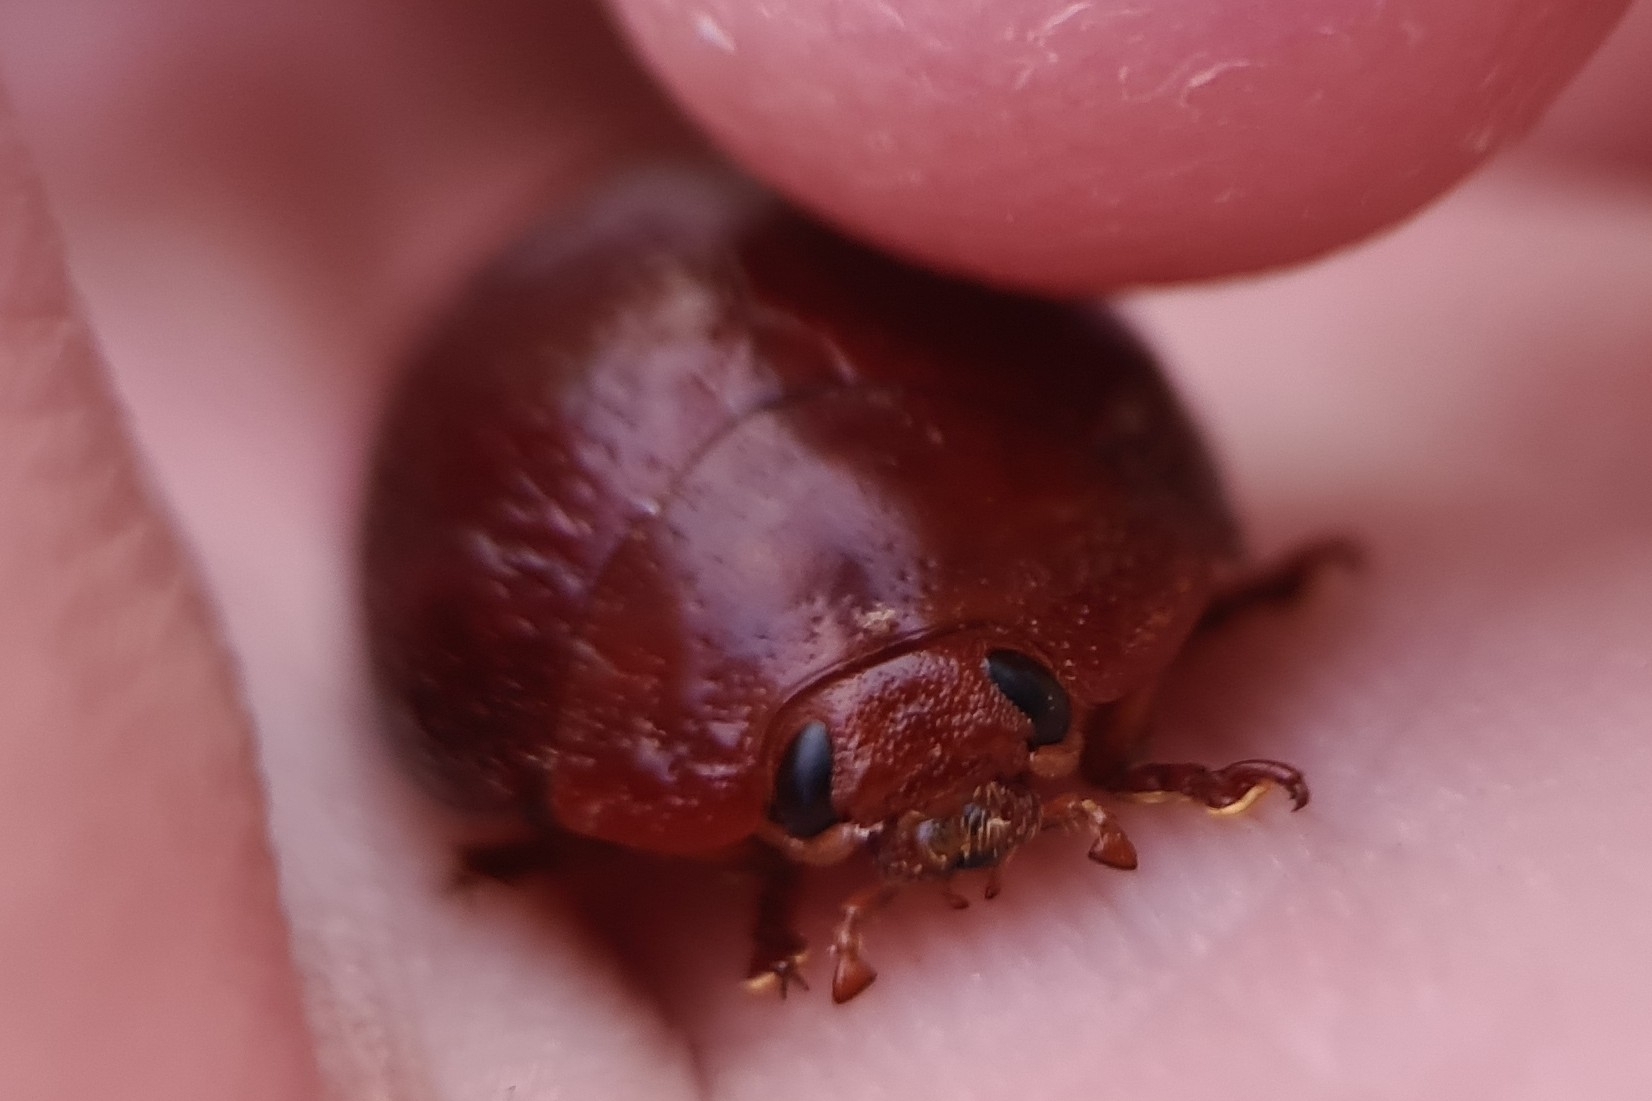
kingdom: Animalia
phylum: Arthropoda
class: Insecta
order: Coleoptera
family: Chrysomelidae
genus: Dicranosterna
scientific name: Dicranosterna
